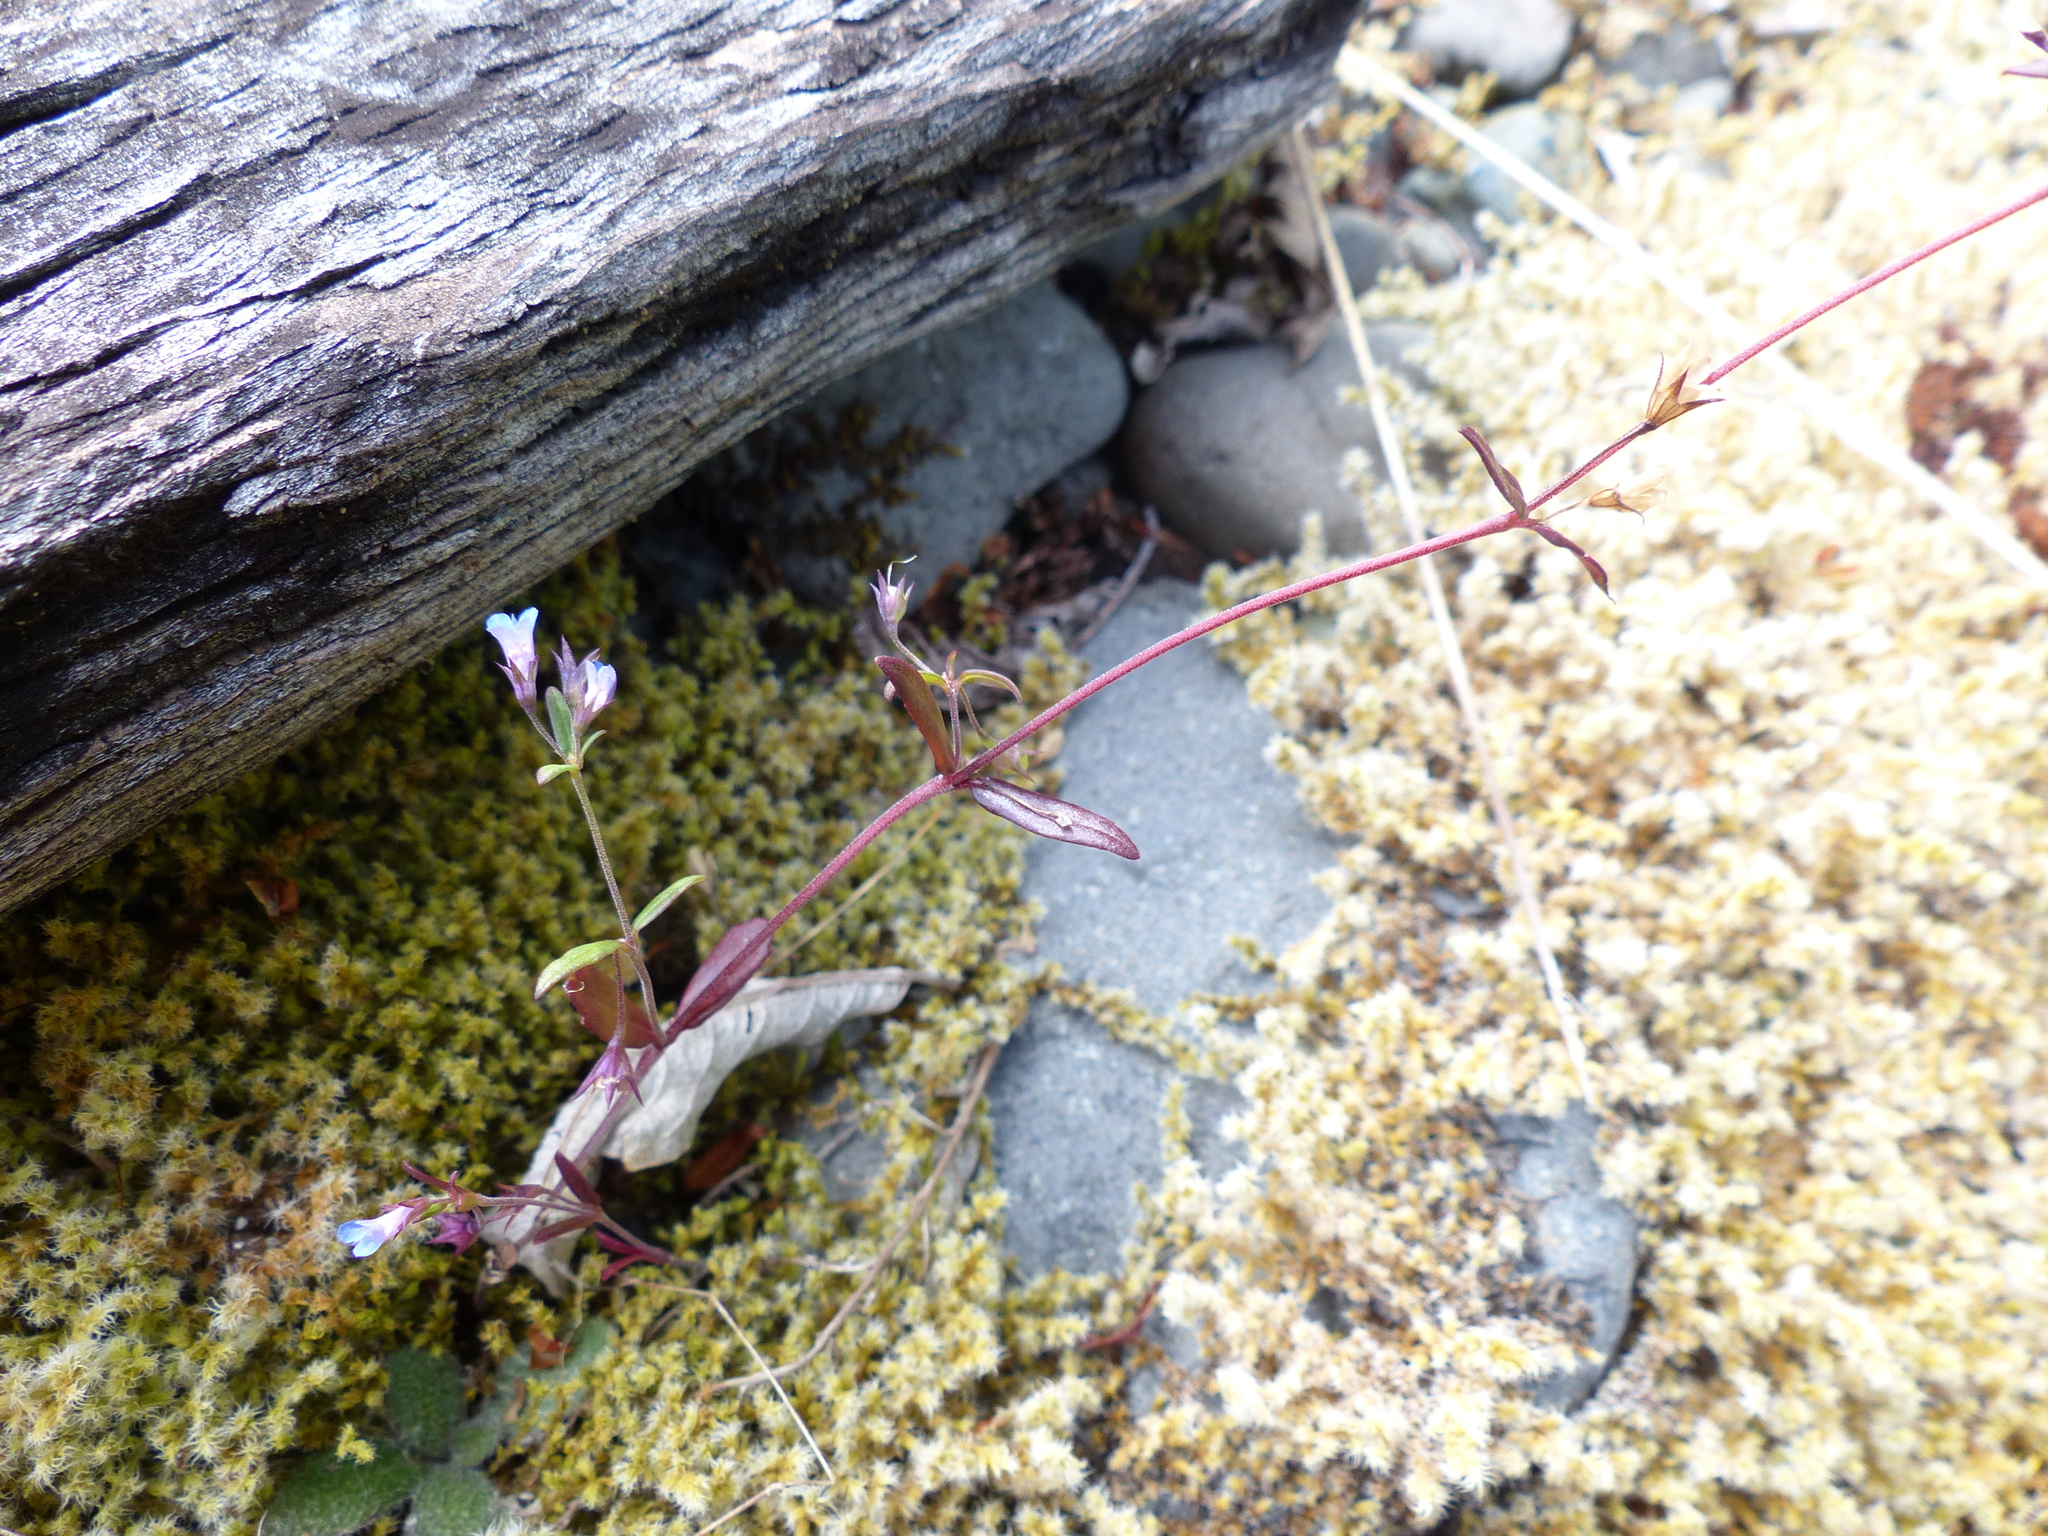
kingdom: Plantae
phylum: Tracheophyta
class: Magnoliopsida
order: Lamiales
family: Plantaginaceae
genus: Collinsia
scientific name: Collinsia parviflora
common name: Blue-lips
